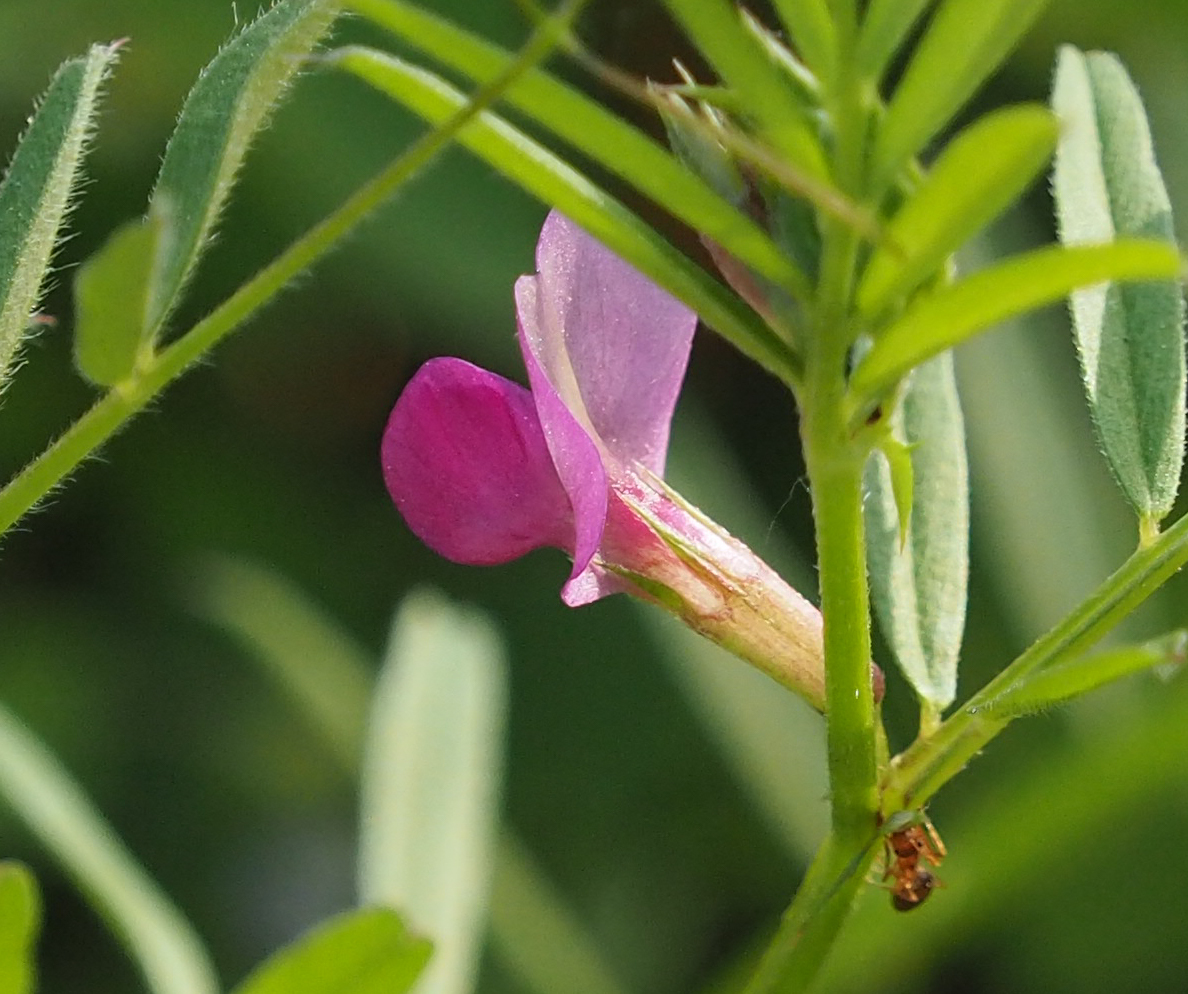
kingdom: Plantae
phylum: Tracheophyta
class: Magnoliopsida
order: Fabales
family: Fabaceae
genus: Vicia
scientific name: Vicia sativa
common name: Garden vetch
